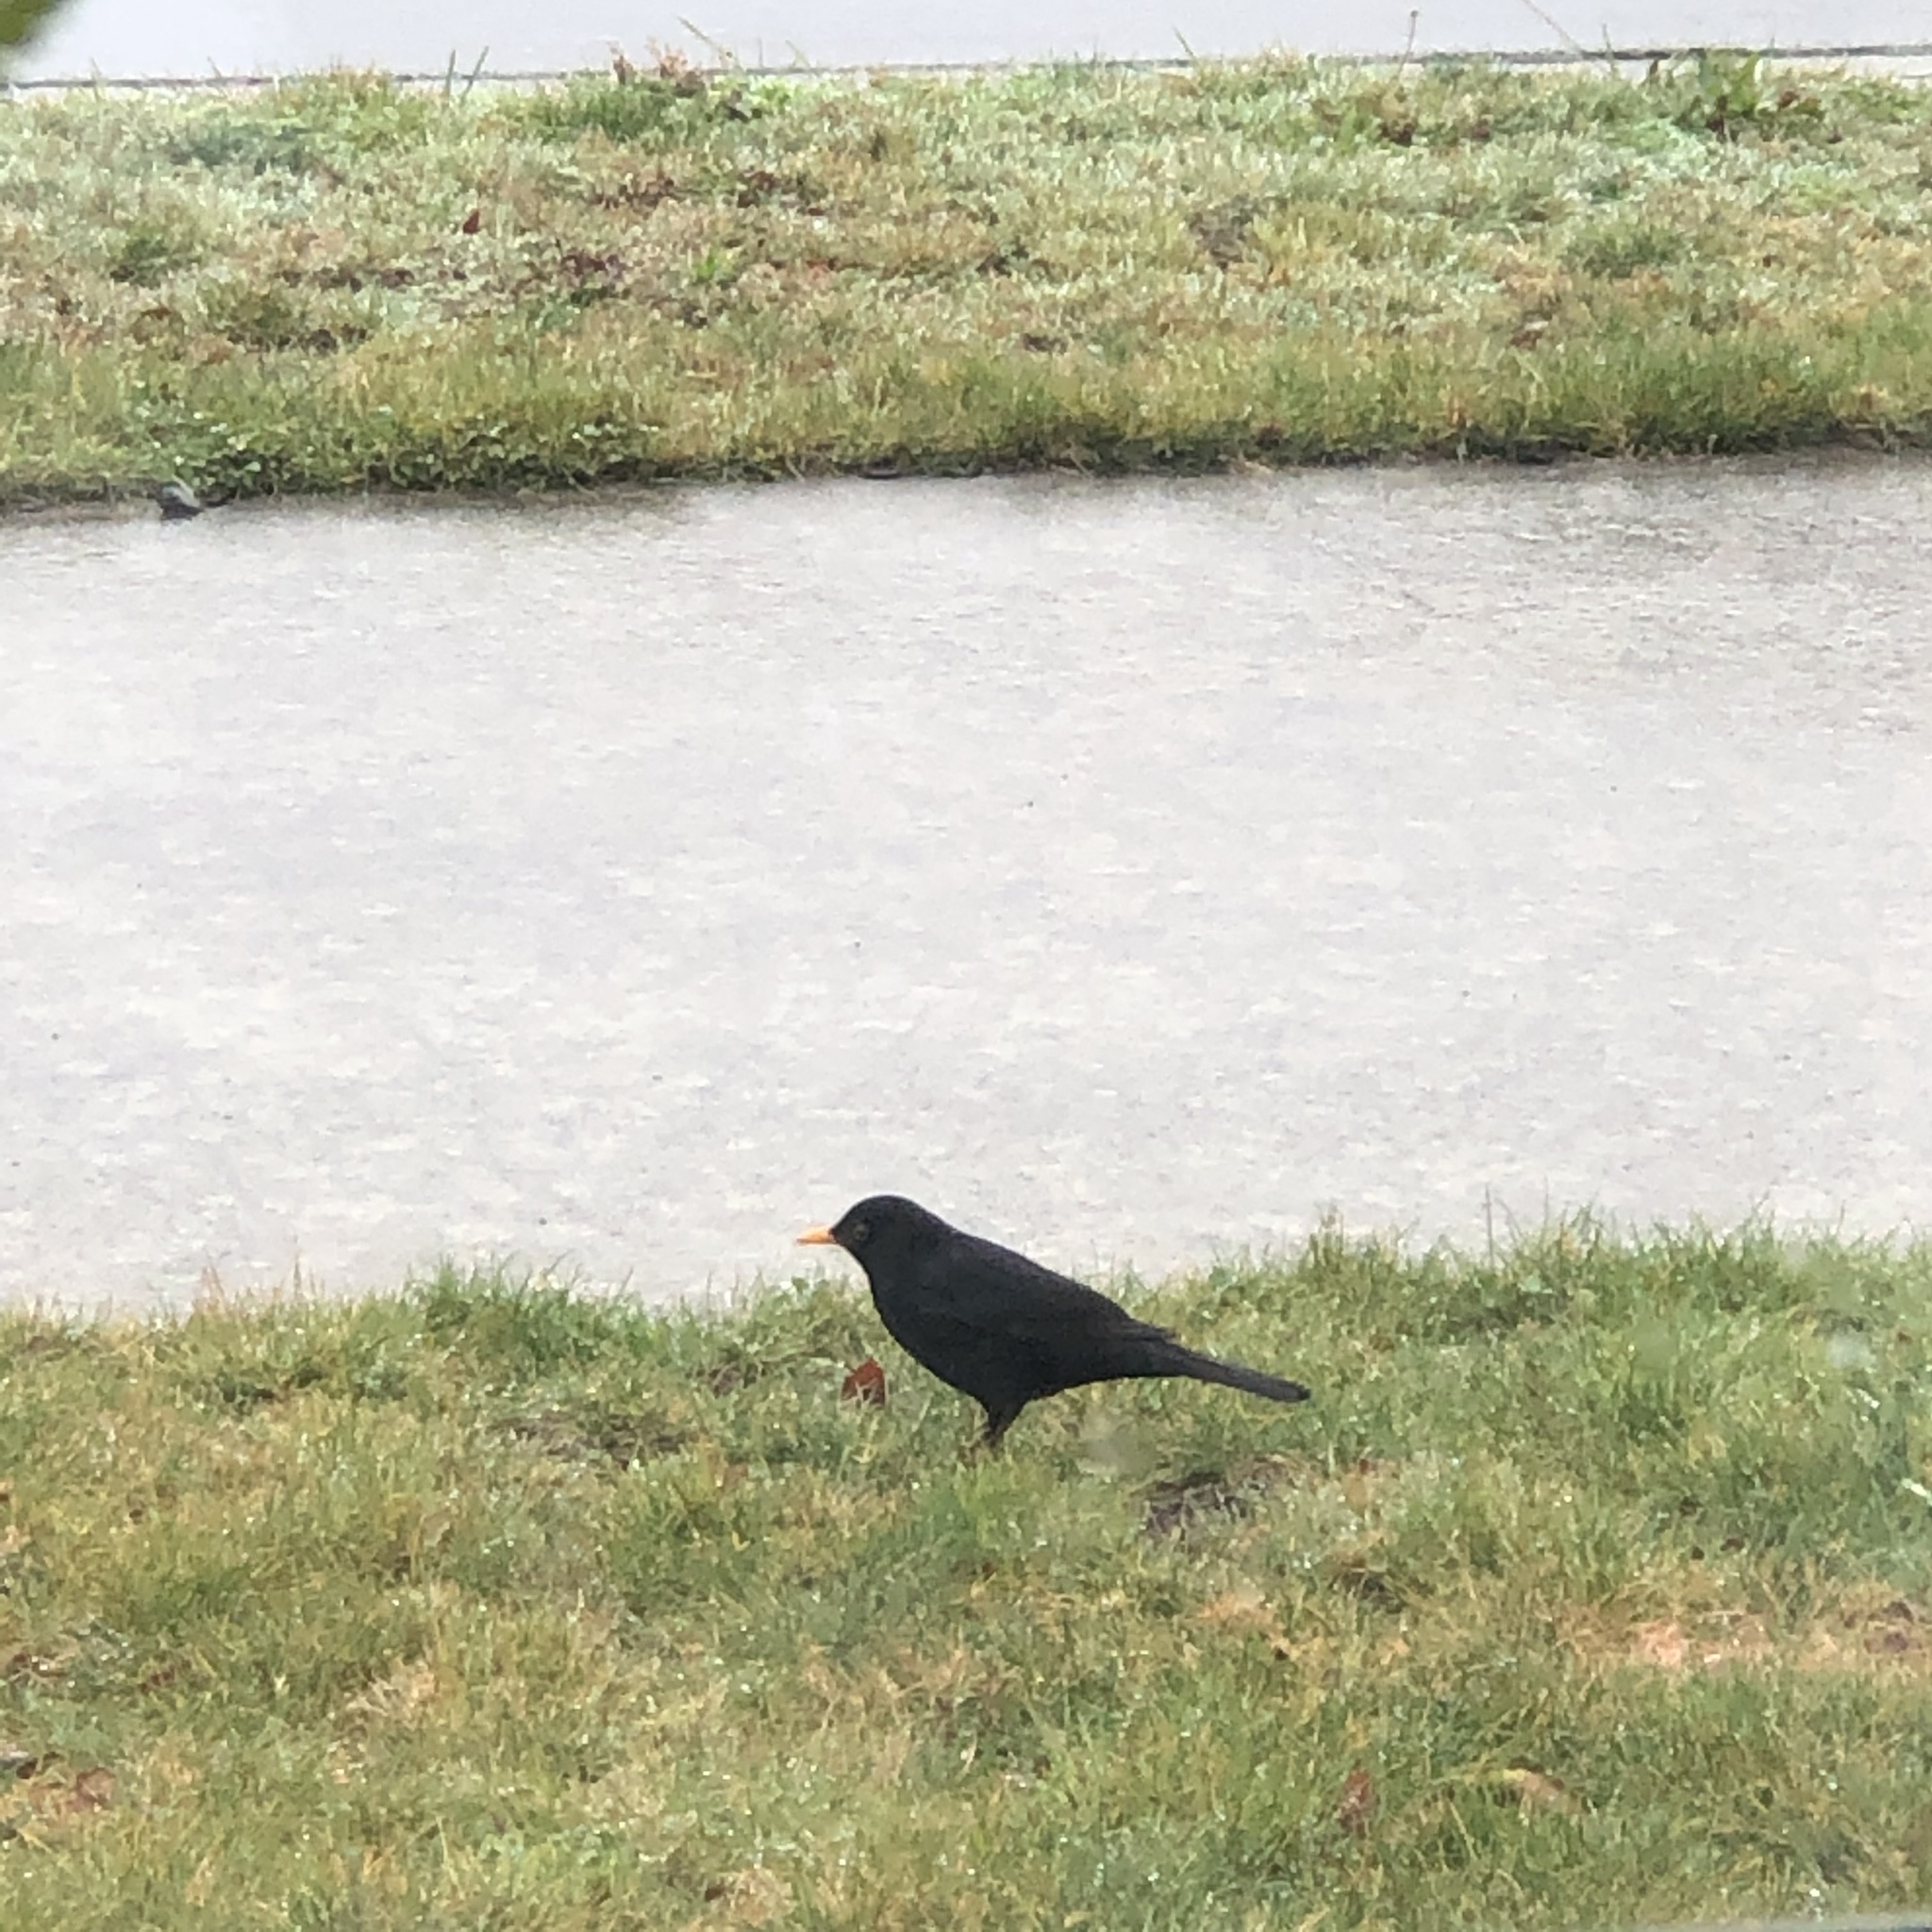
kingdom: Animalia
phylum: Chordata
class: Aves
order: Passeriformes
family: Turdidae
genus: Turdus
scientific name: Turdus merula
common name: Common blackbird
